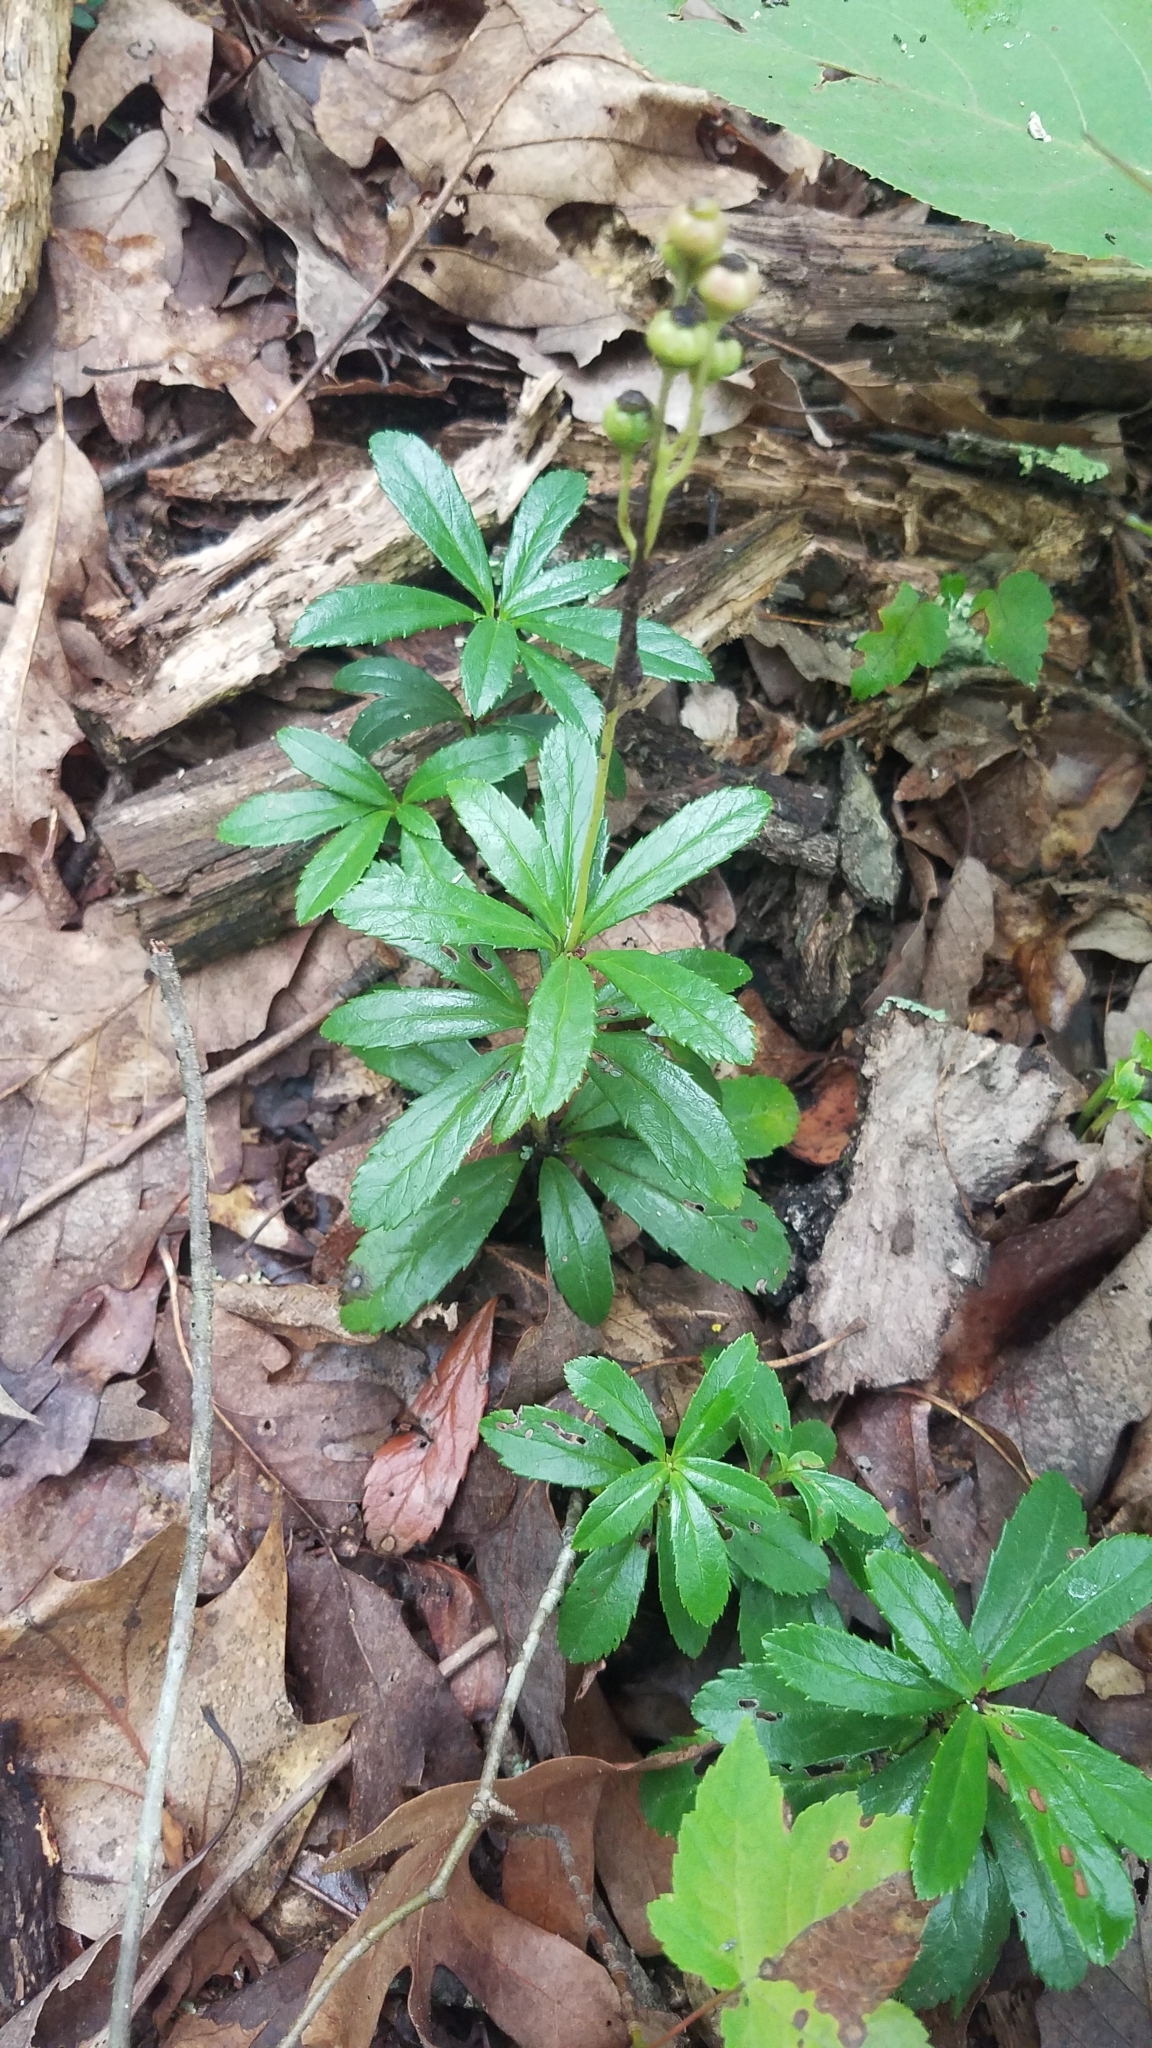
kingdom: Plantae
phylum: Tracheophyta
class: Magnoliopsida
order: Ericales
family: Ericaceae
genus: Chimaphila
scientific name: Chimaphila umbellata
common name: Pipsissewa
